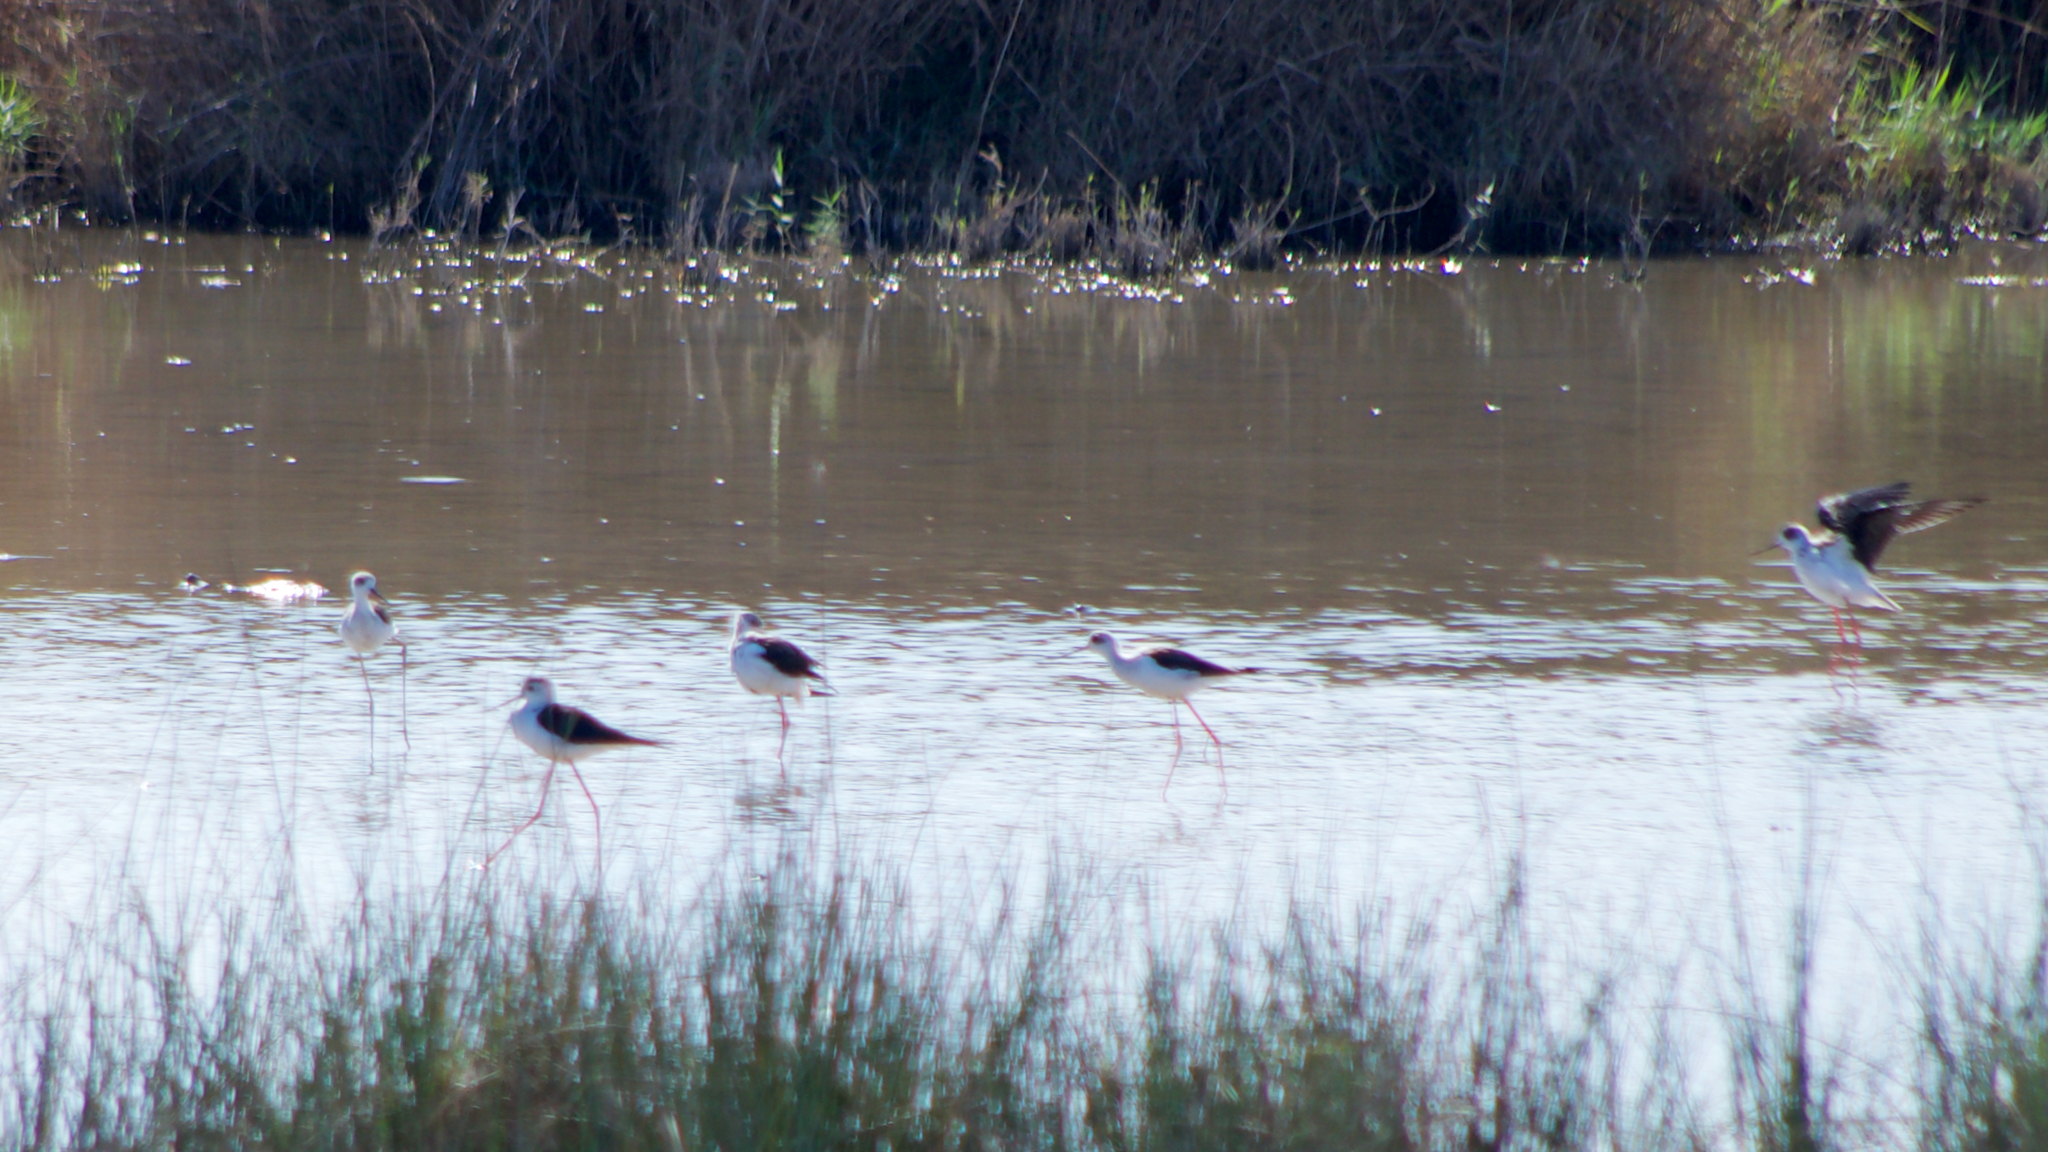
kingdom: Animalia
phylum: Chordata
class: Aves
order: Charadriiformes
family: Recurvirostridae
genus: Himantopus
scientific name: Himantopus himantopus
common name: Black-winged stilt
